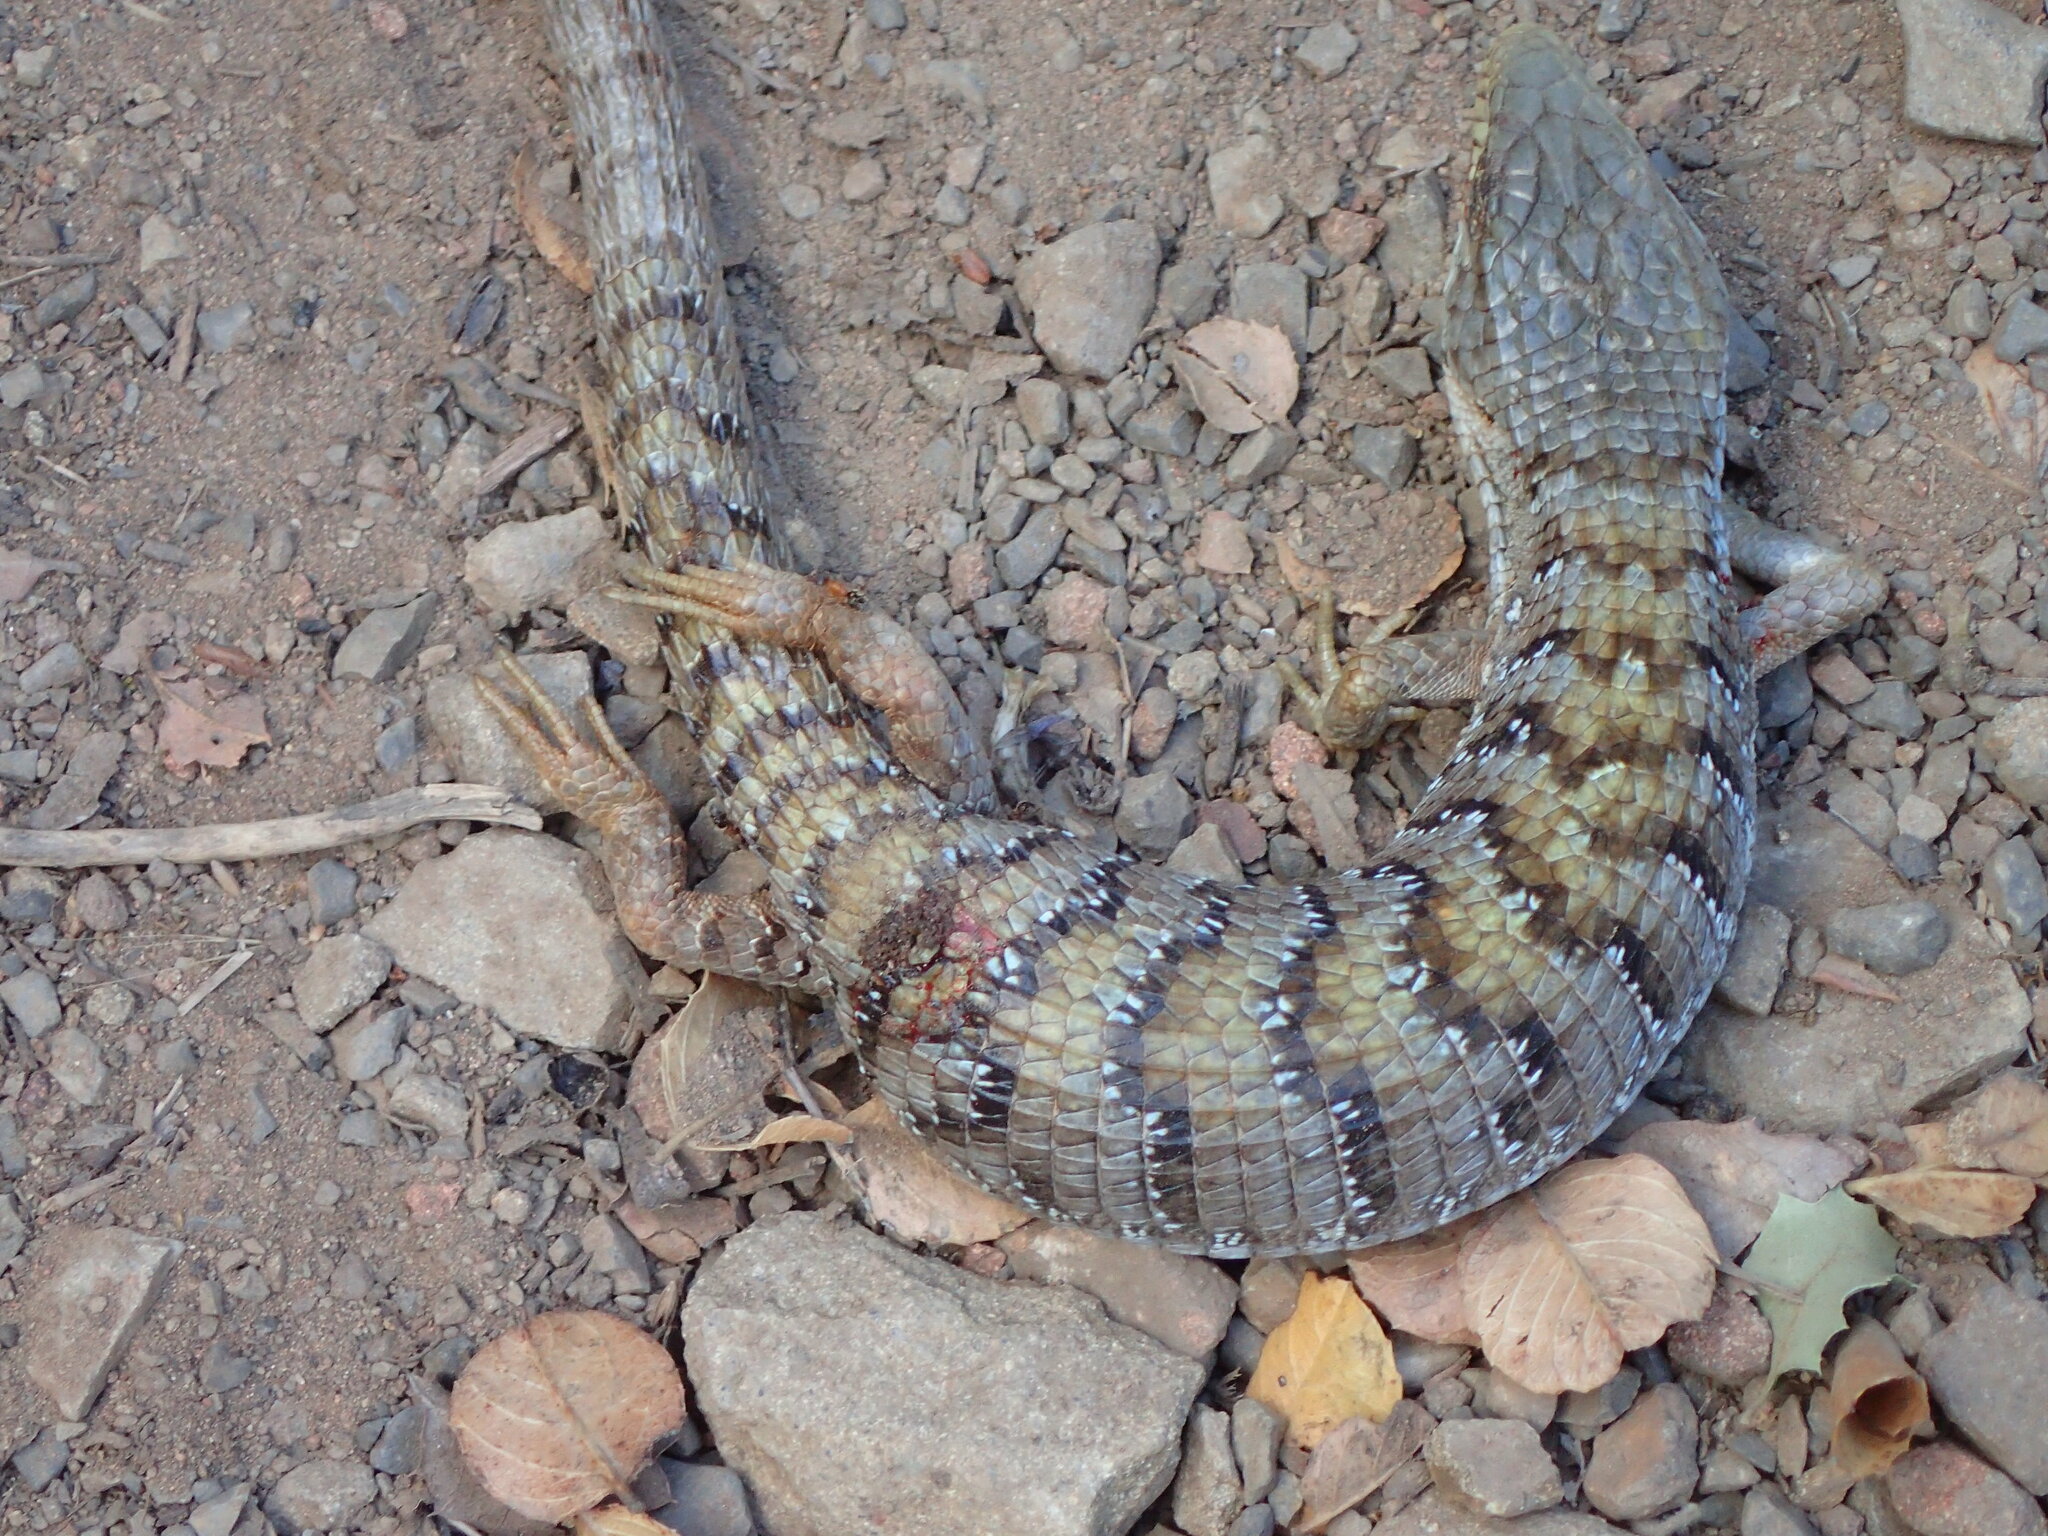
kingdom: Animalia
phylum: Chordata
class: Squamata
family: Anguidae
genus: Elgaria
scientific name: Elgaria multicarinata
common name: Southern alligator lizard
